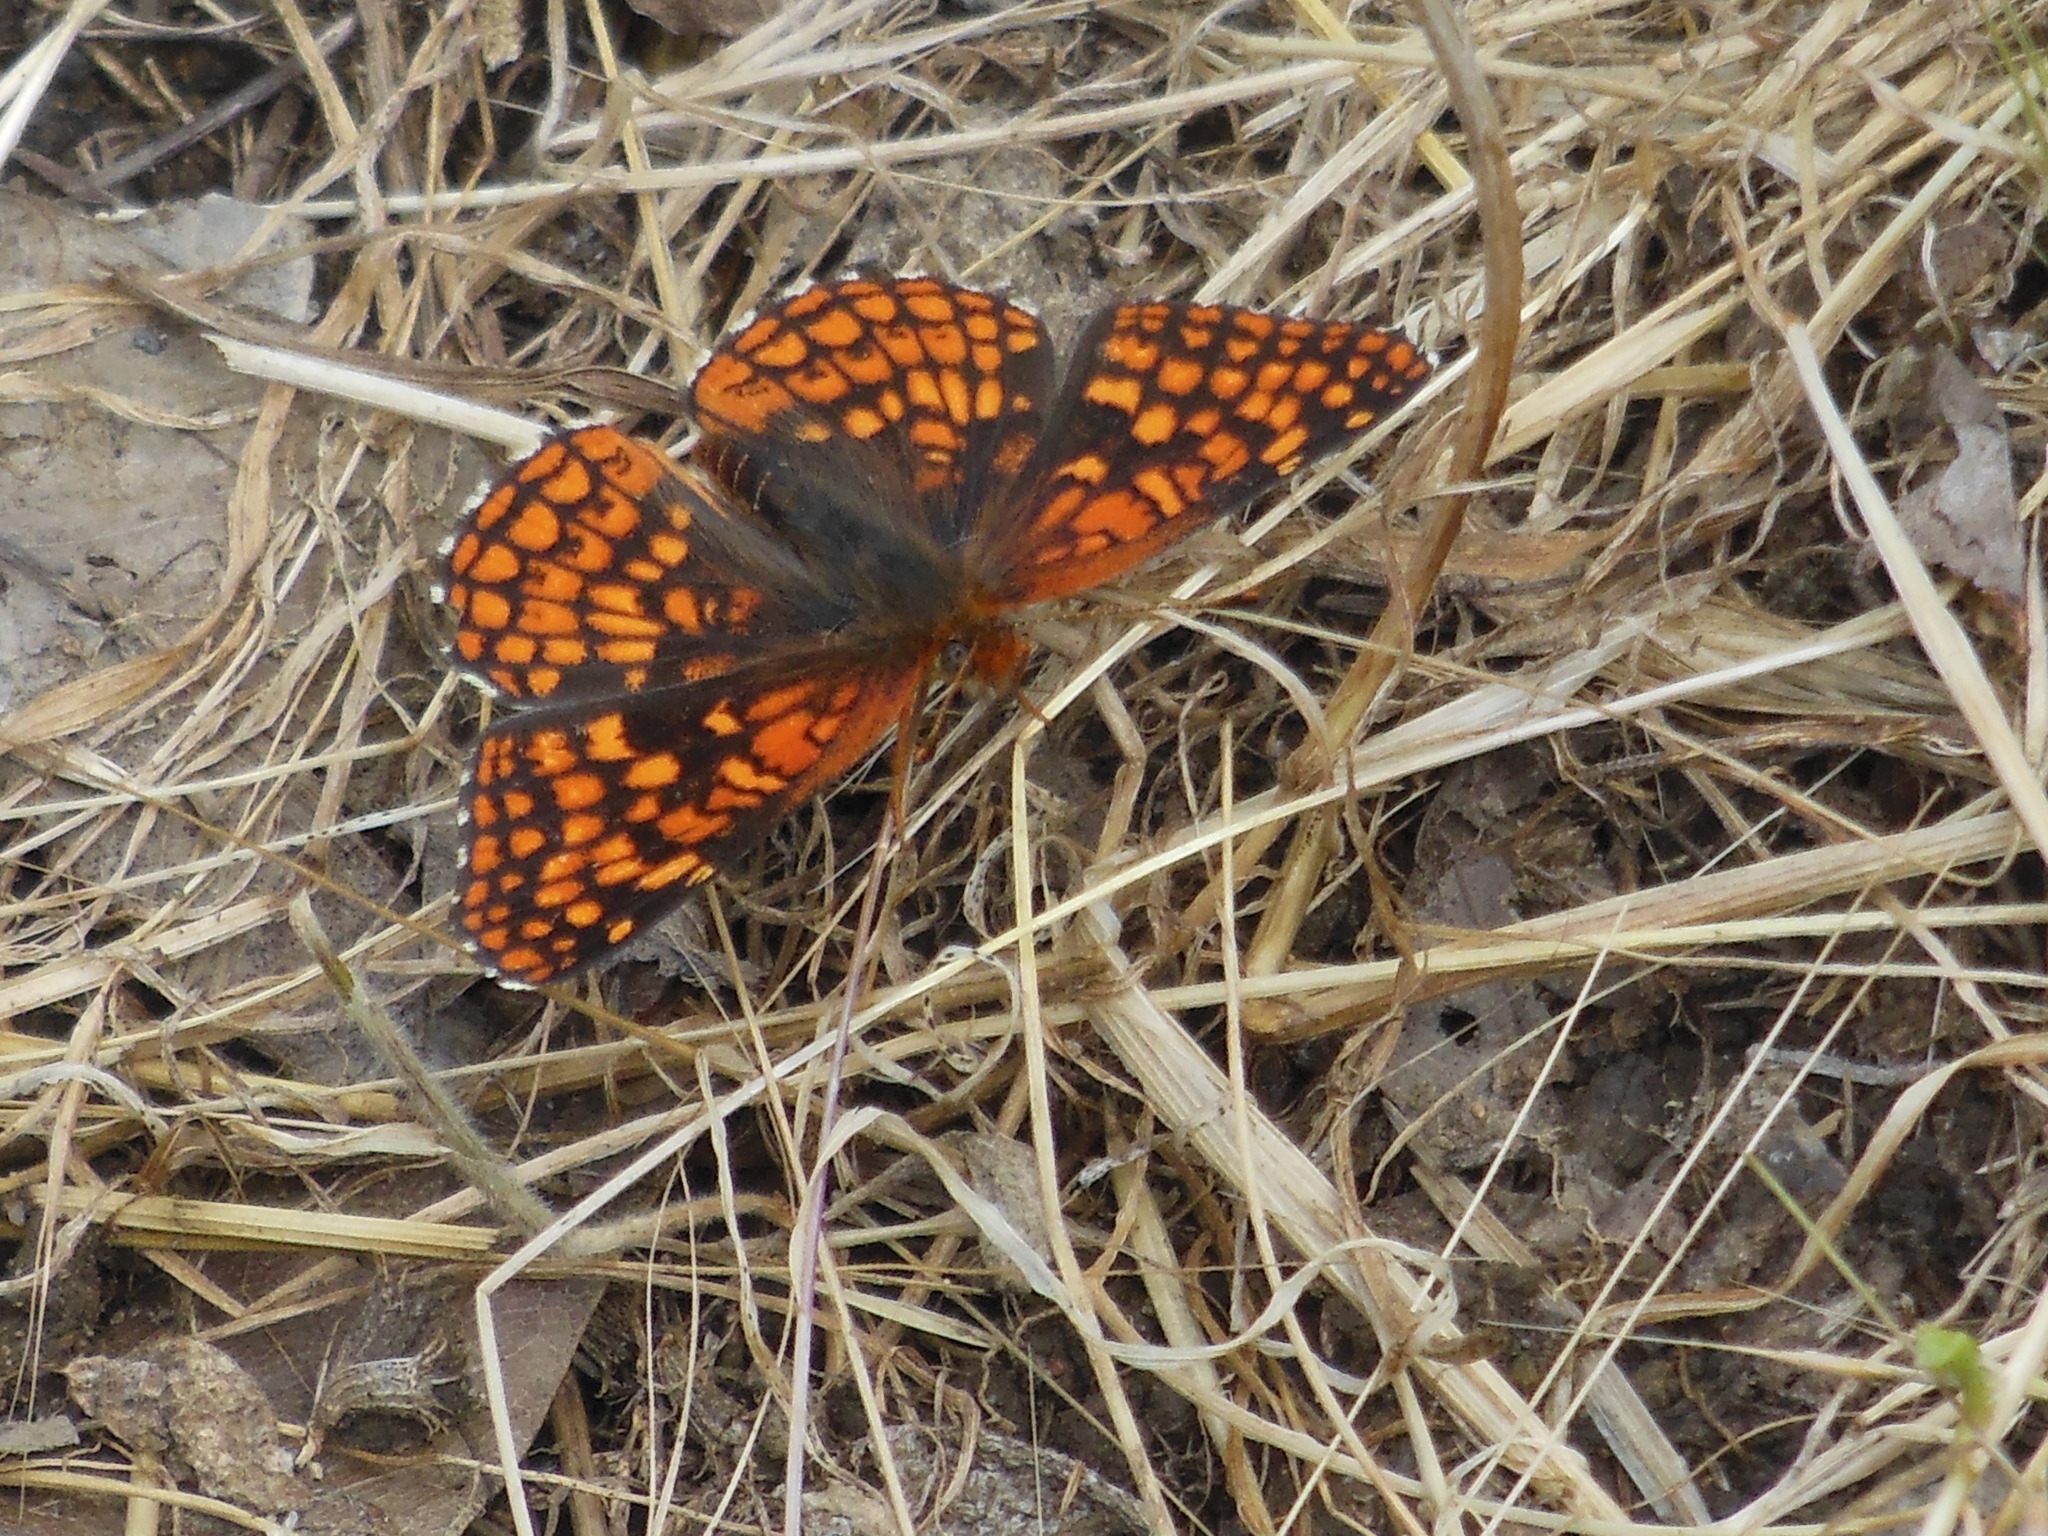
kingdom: Animalia
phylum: Arthropoda
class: Insecta
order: Lepidoptera
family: Nymphalidae
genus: Chlosyne
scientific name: Chlosyne palla
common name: Northern checkerspot
